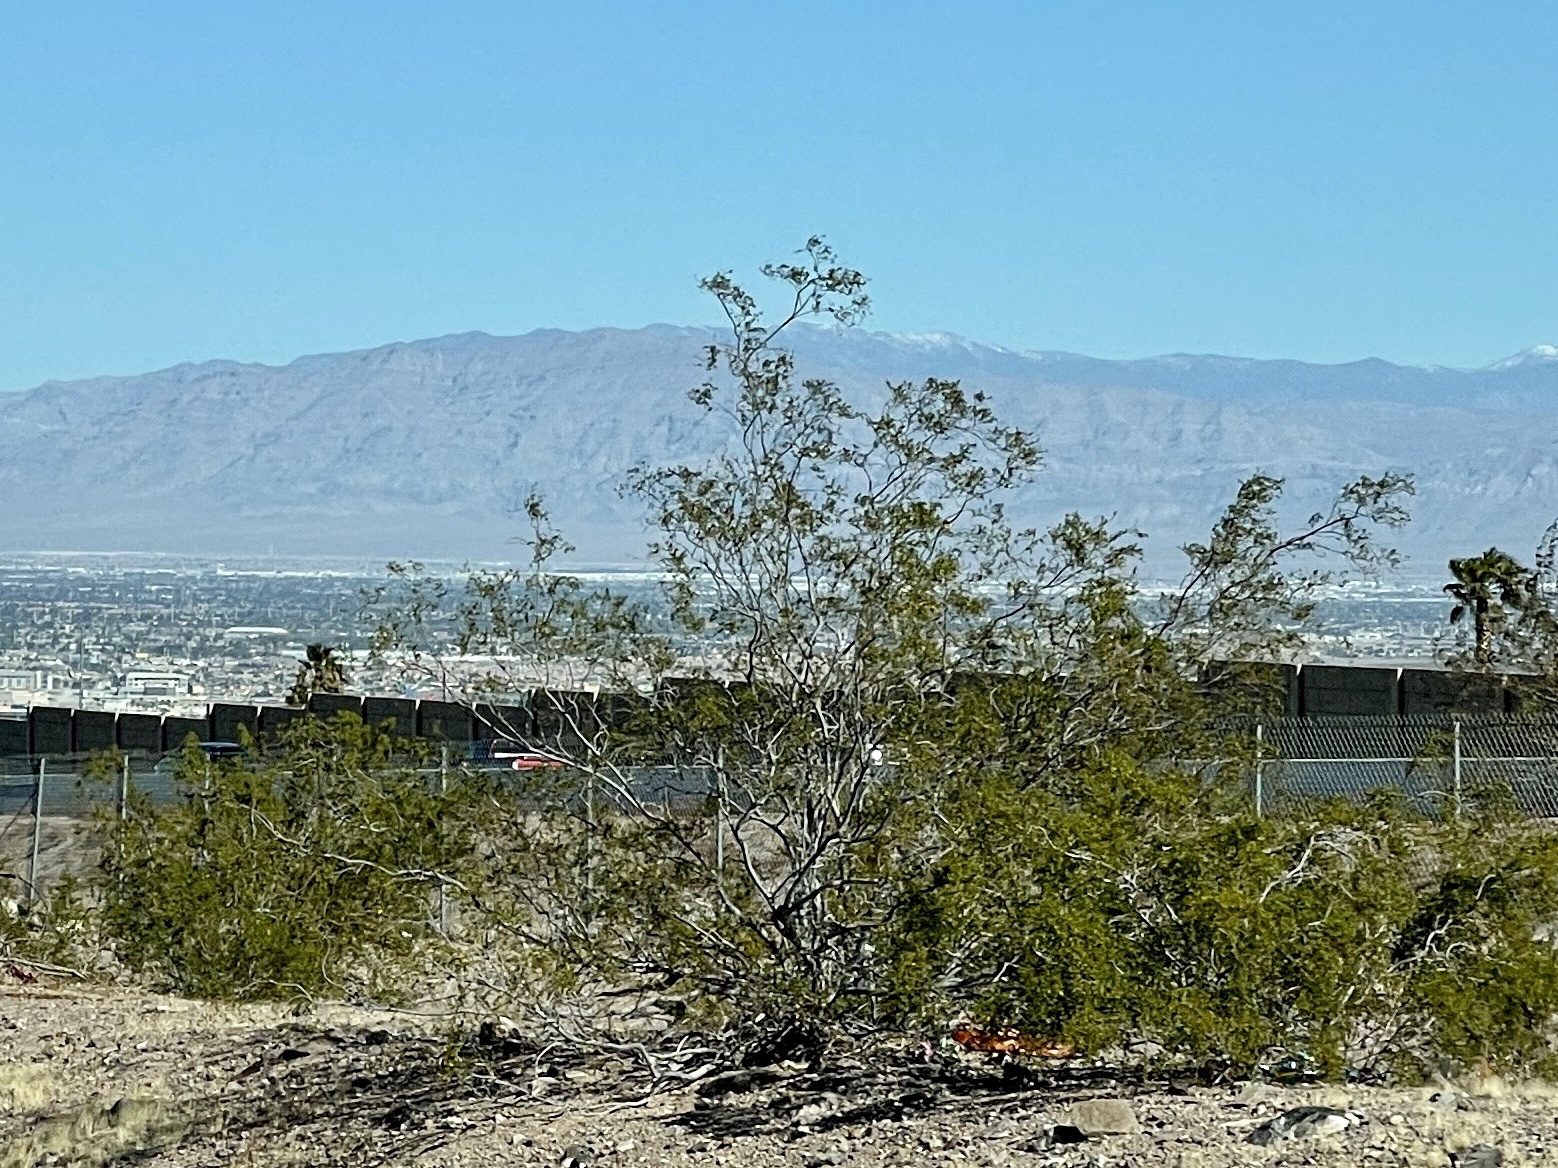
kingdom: Plantae
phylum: Tracheophyta
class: Magnoliopsida
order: Zygophyllales
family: Zygophyllaceae
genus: Larrea
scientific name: Larrea tridentata
